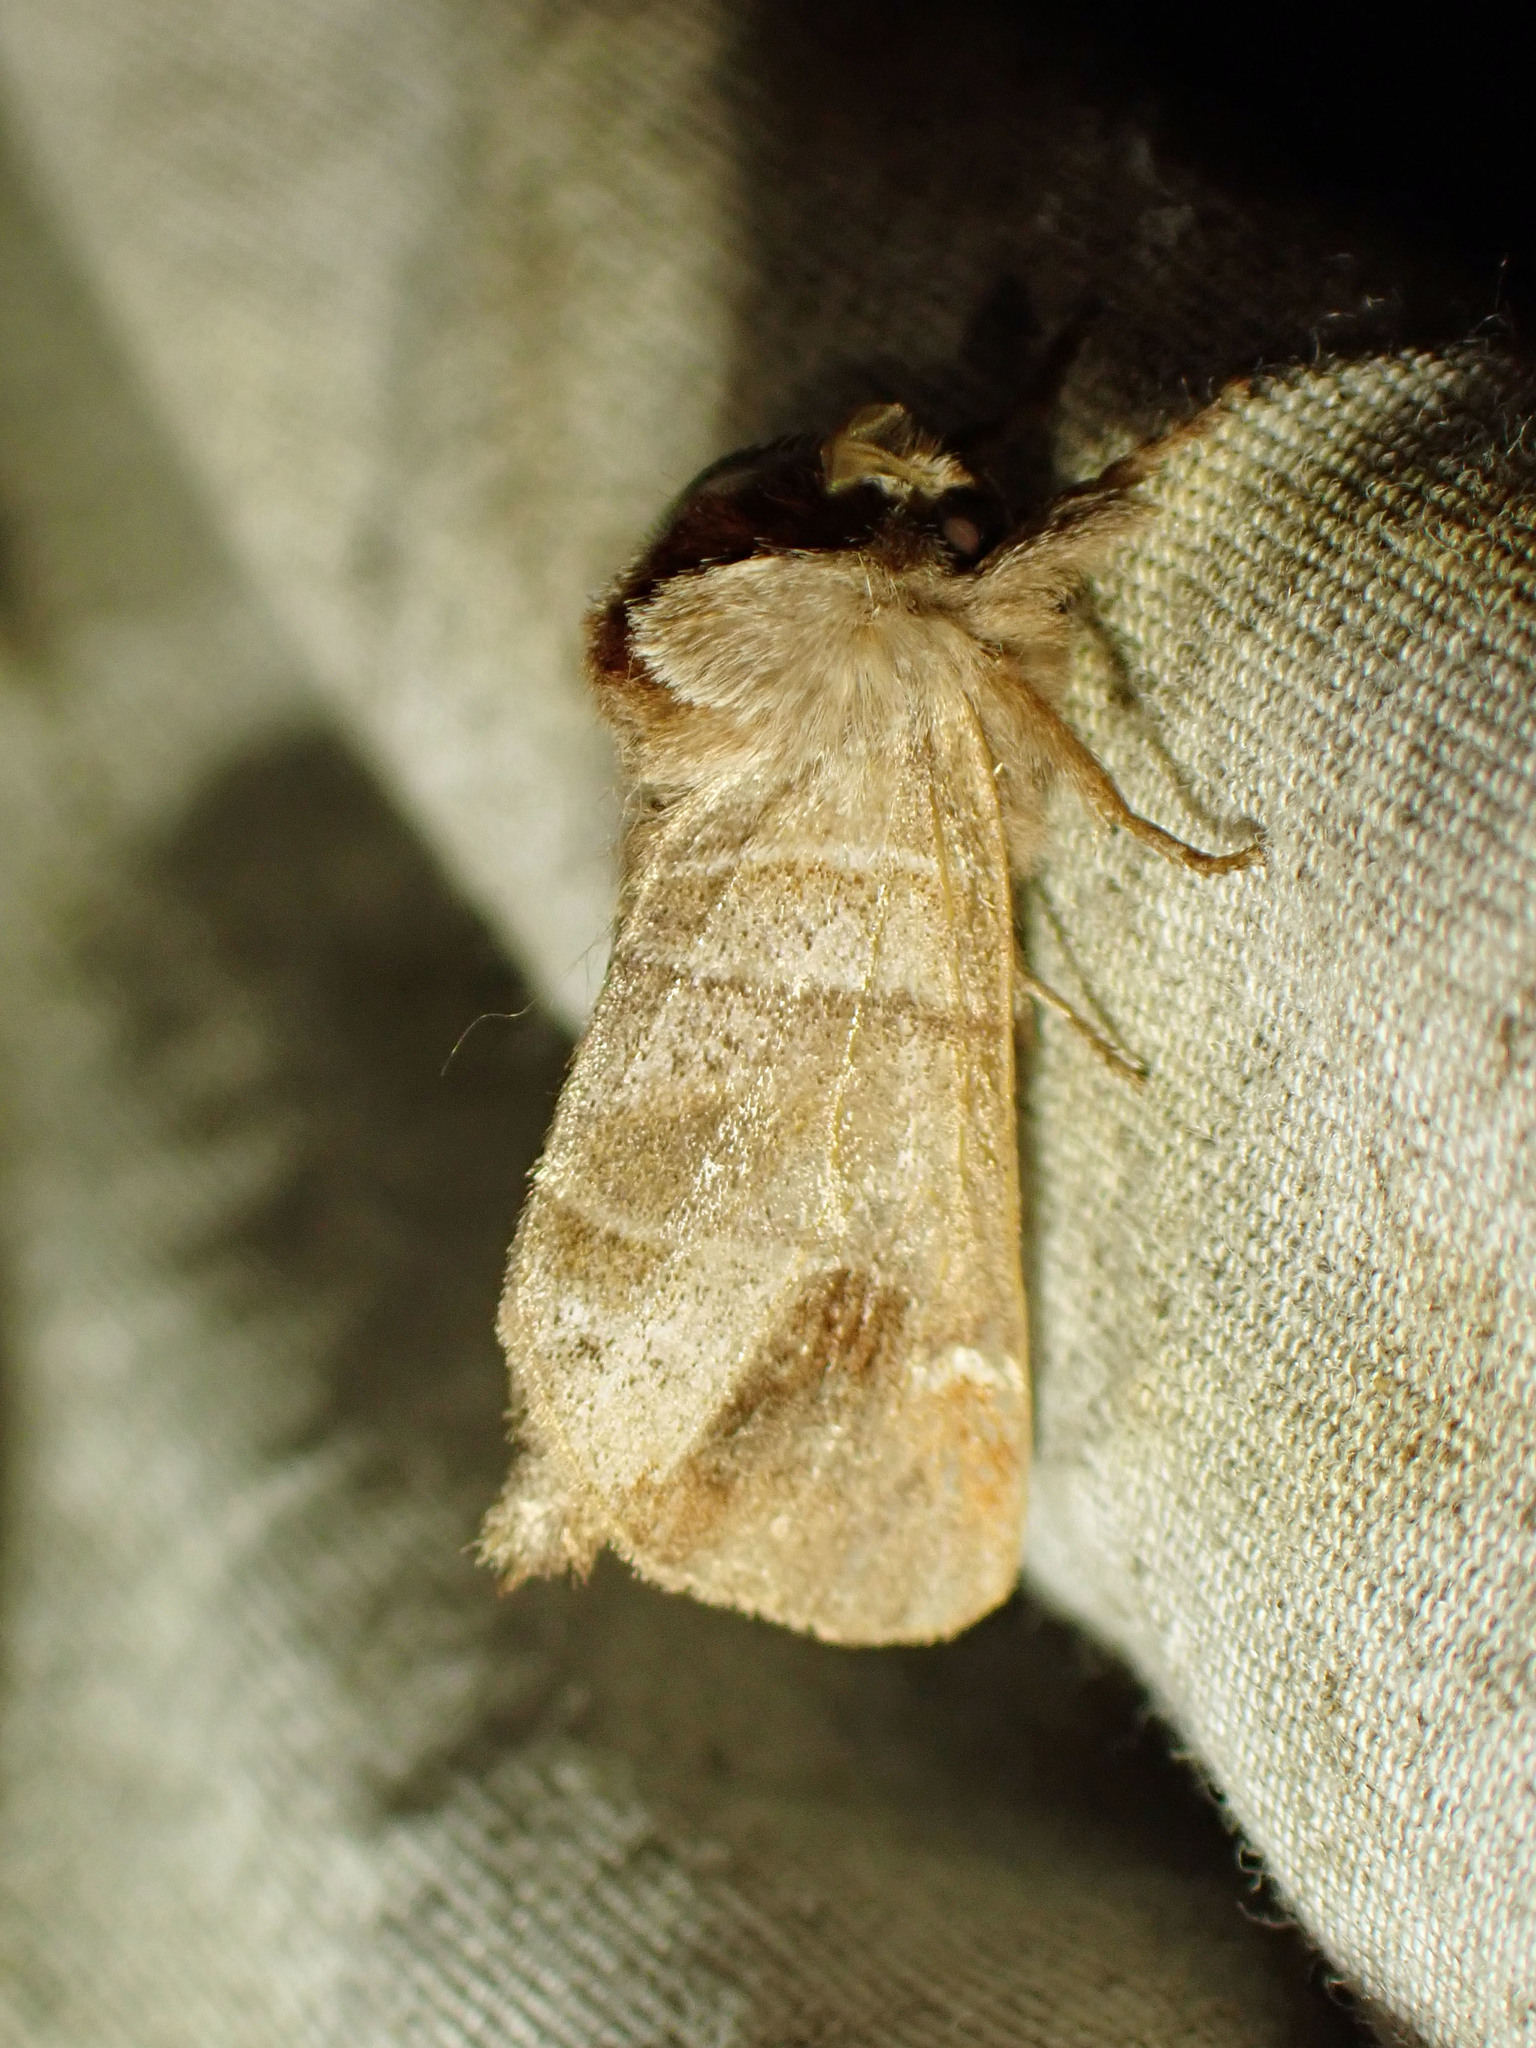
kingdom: Animalia
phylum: Arthropoda
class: Insecta
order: Lepidoptera
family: Notodontidae
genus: Clostera
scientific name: Clostera albosigma
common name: Sigmoid prominent
